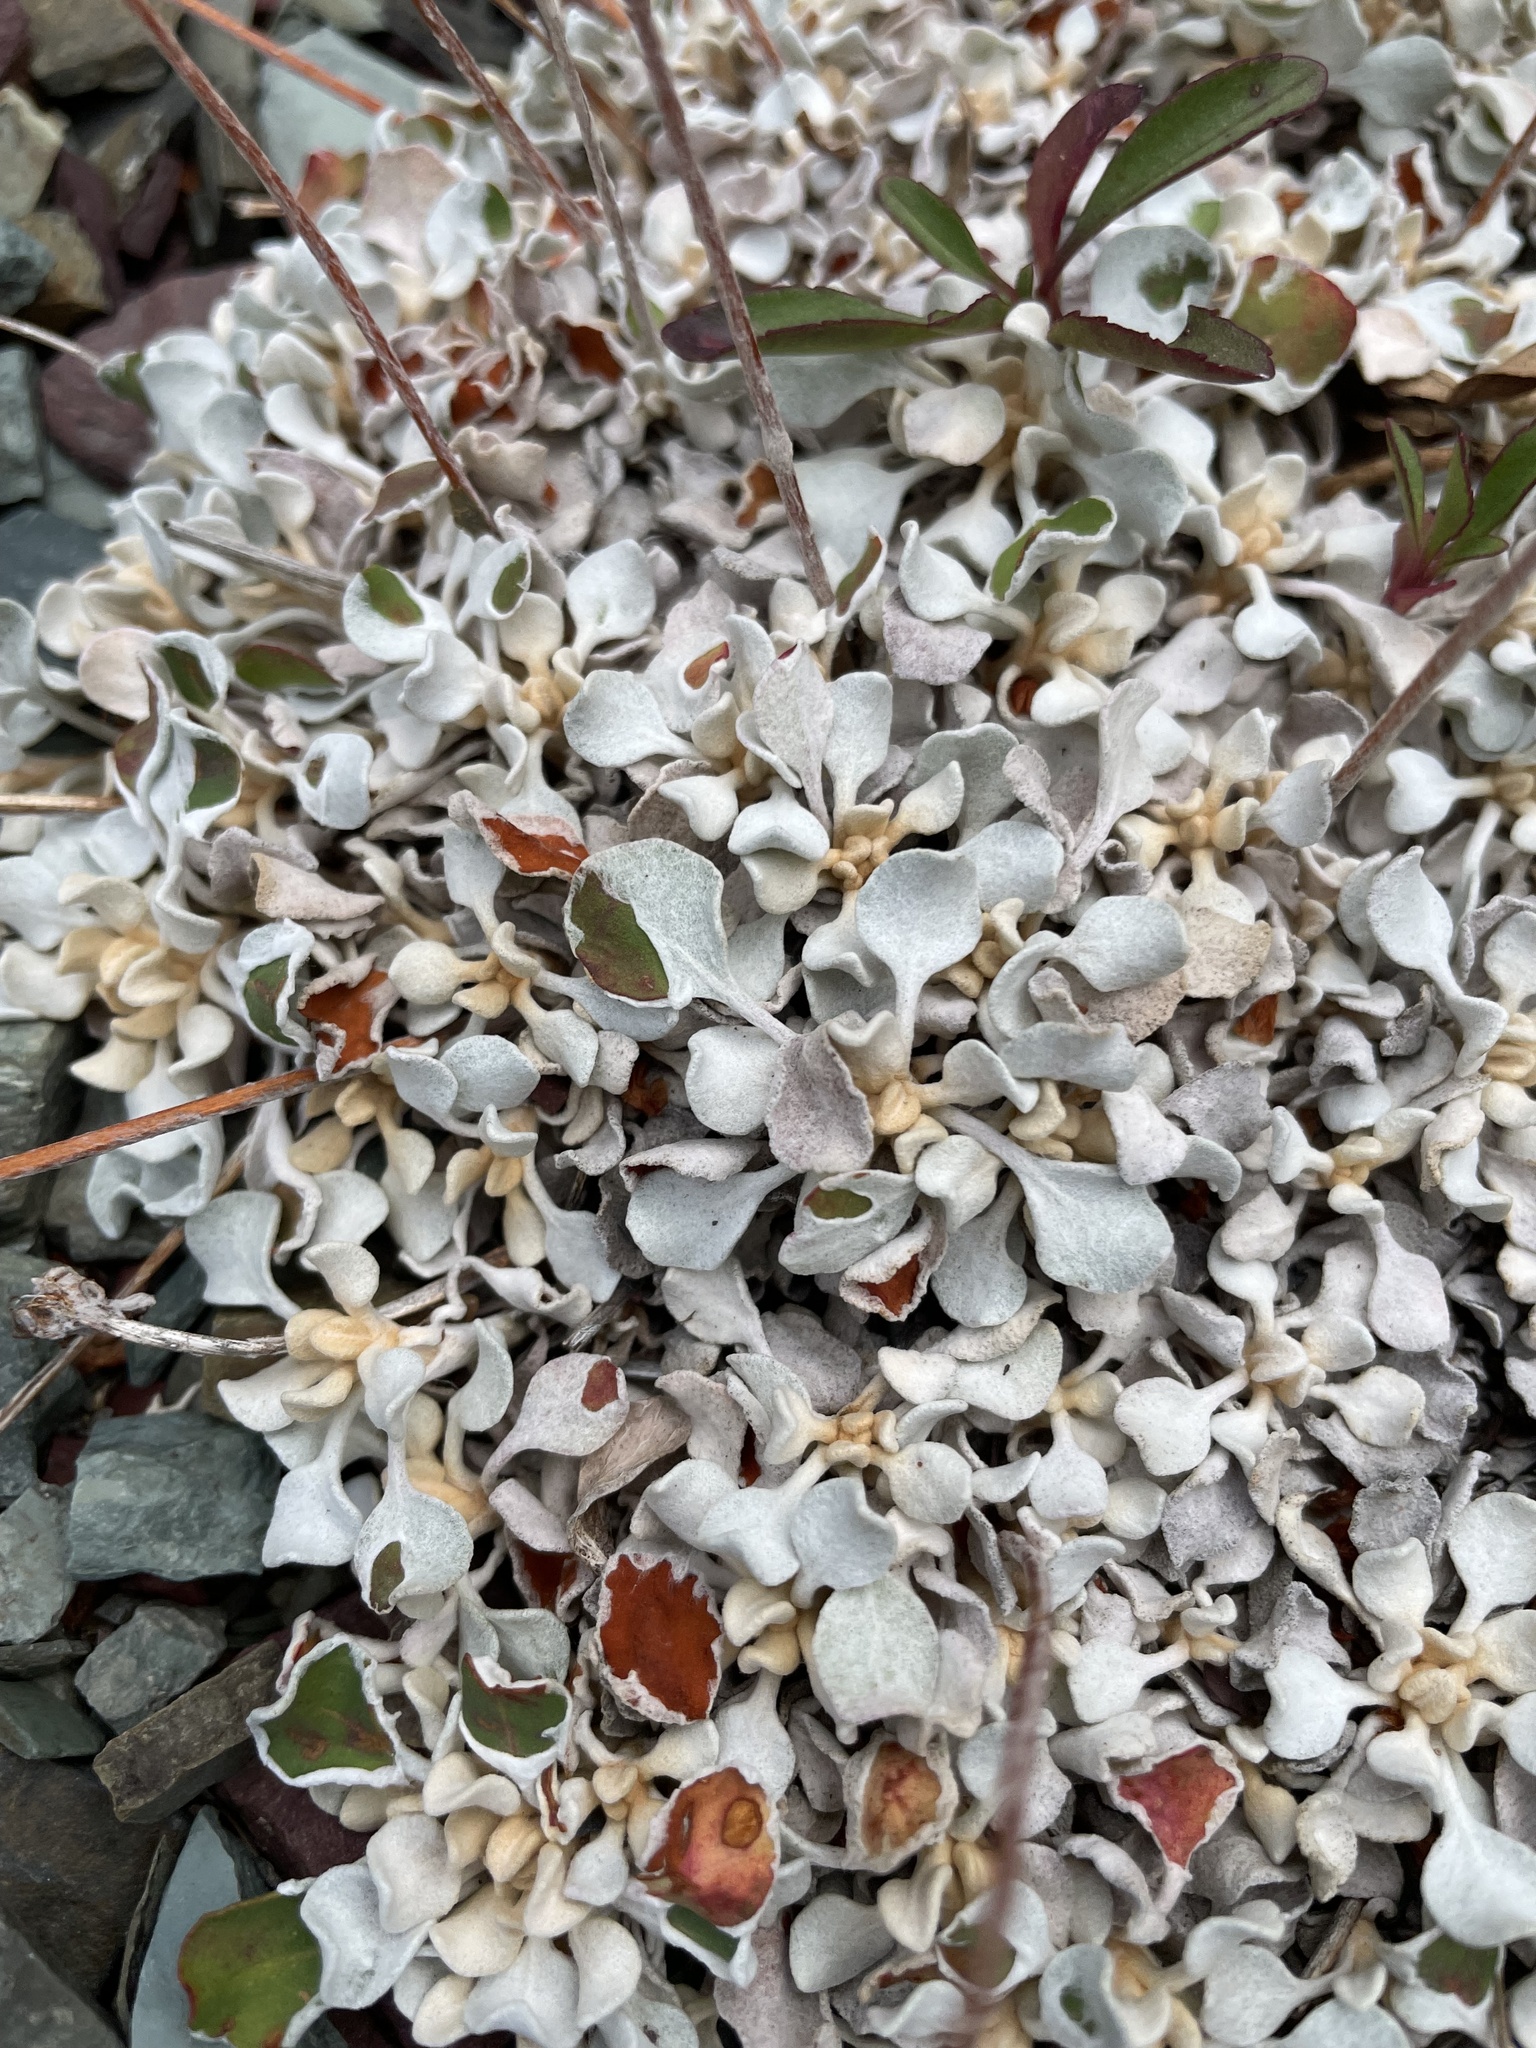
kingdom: Plantae
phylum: Tracheophyta
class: Magnoliopsida
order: Caryophyllales
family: Polygonaceae
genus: Eriogonum
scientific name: Eriogonum ovalifolium
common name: Cushion buckwheat
